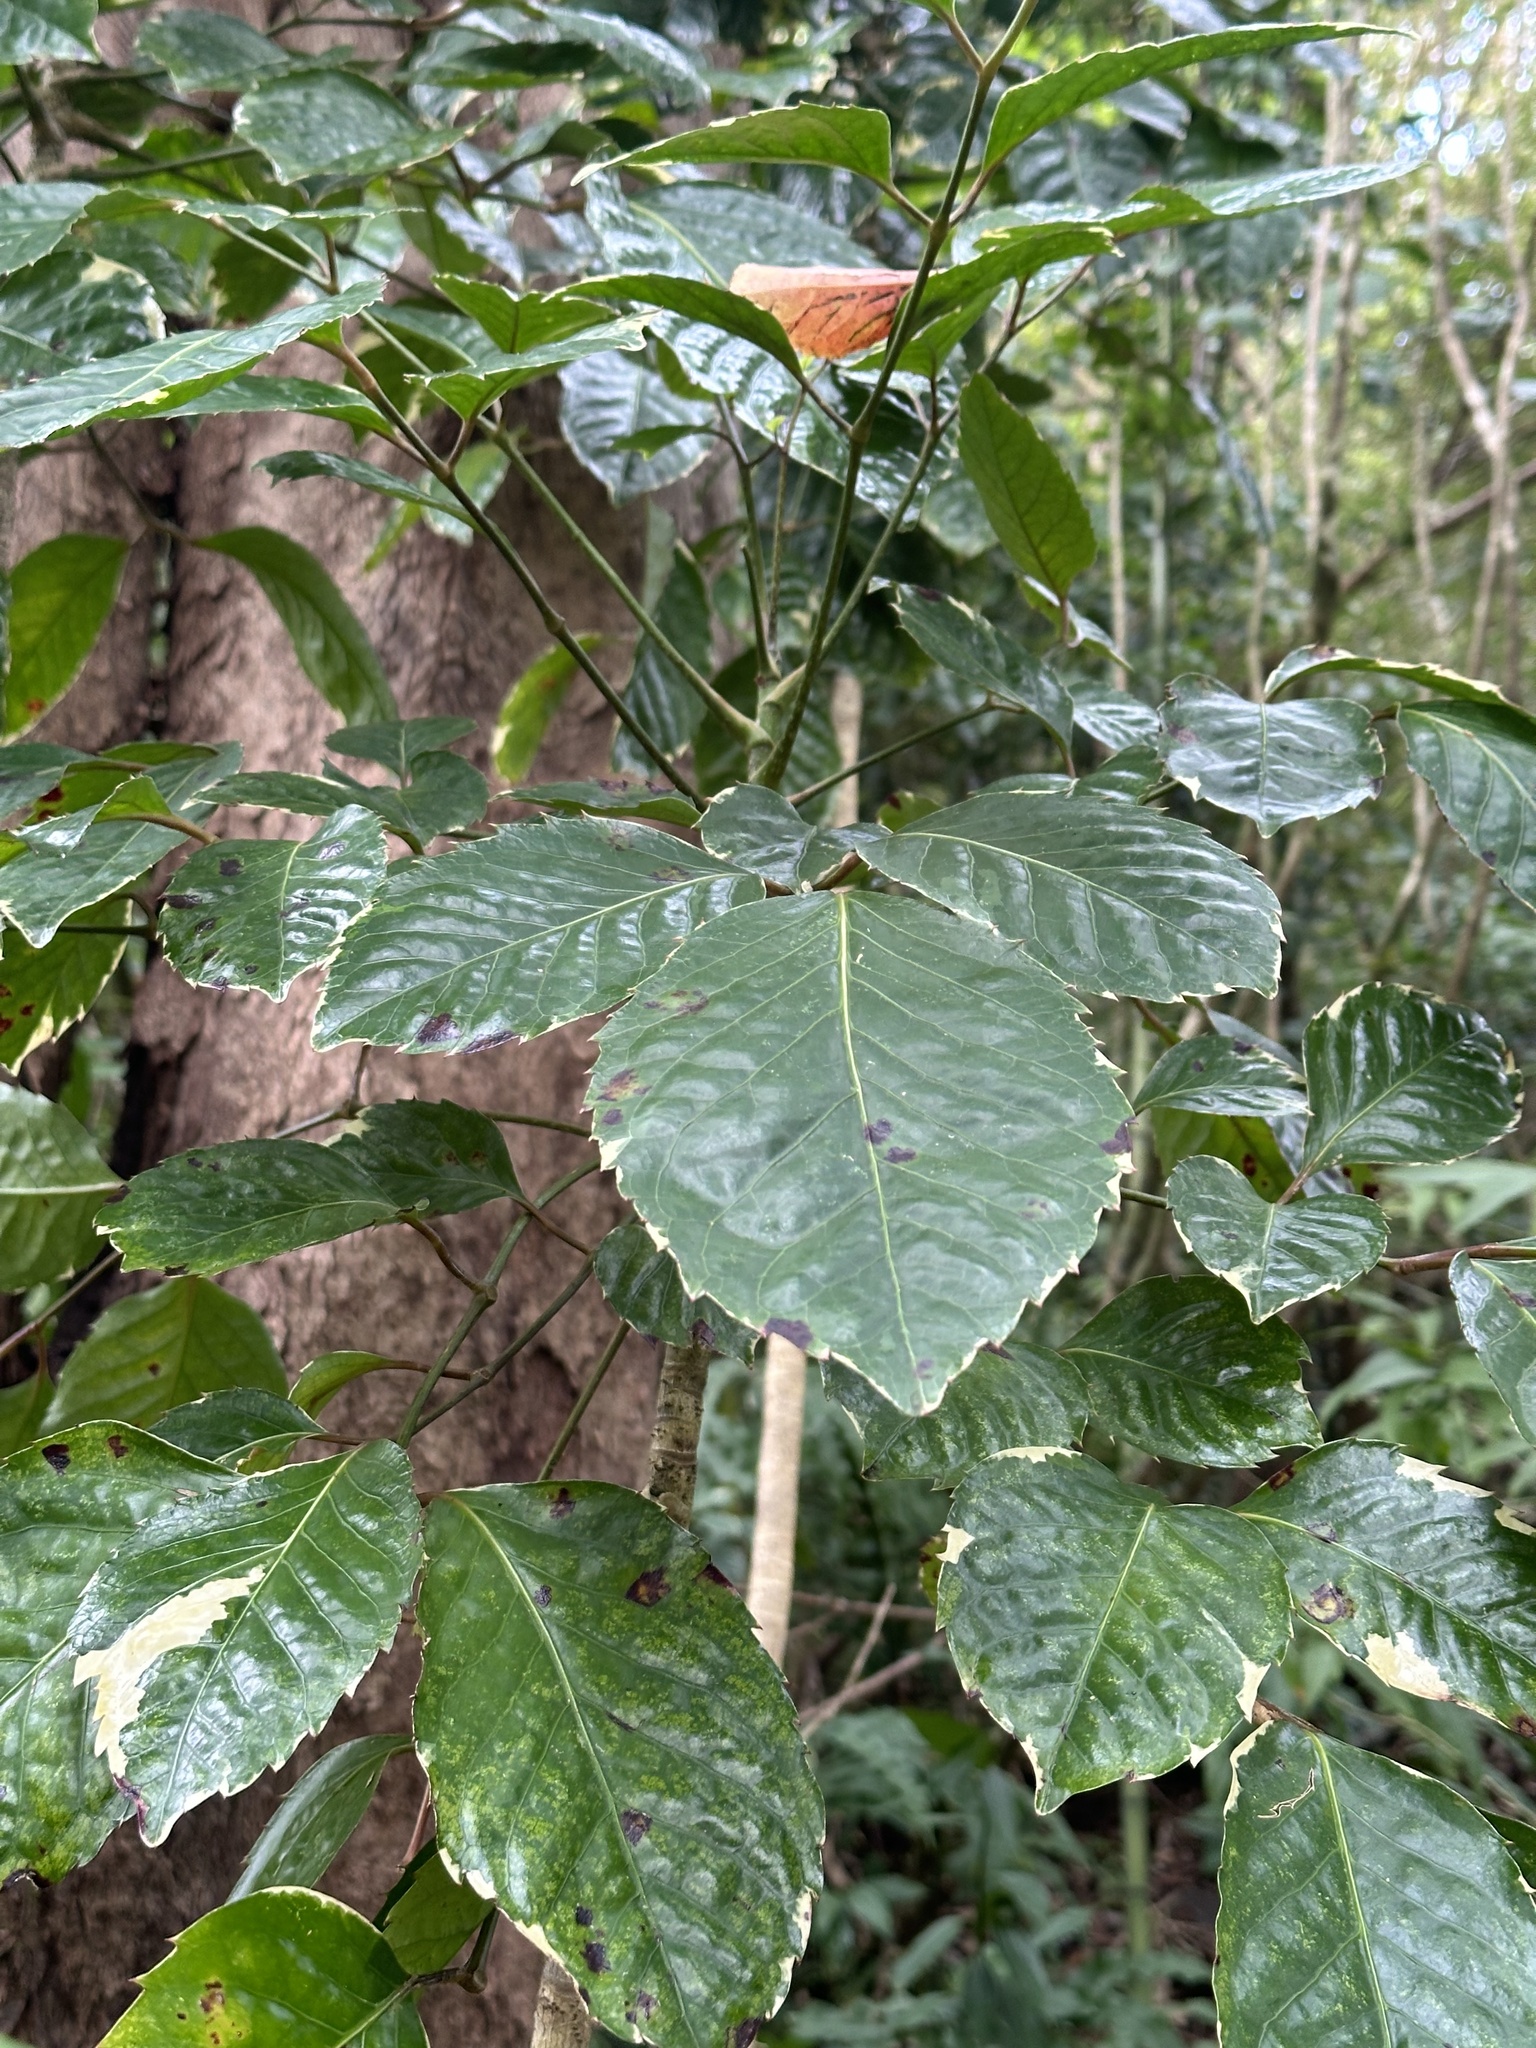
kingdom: Plantae
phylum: Tracheophyta
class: Magnoliopsida
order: Apiales
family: Araliaceae
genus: Polyscias
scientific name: Polyscias guilfoylei
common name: Geranium aralia
